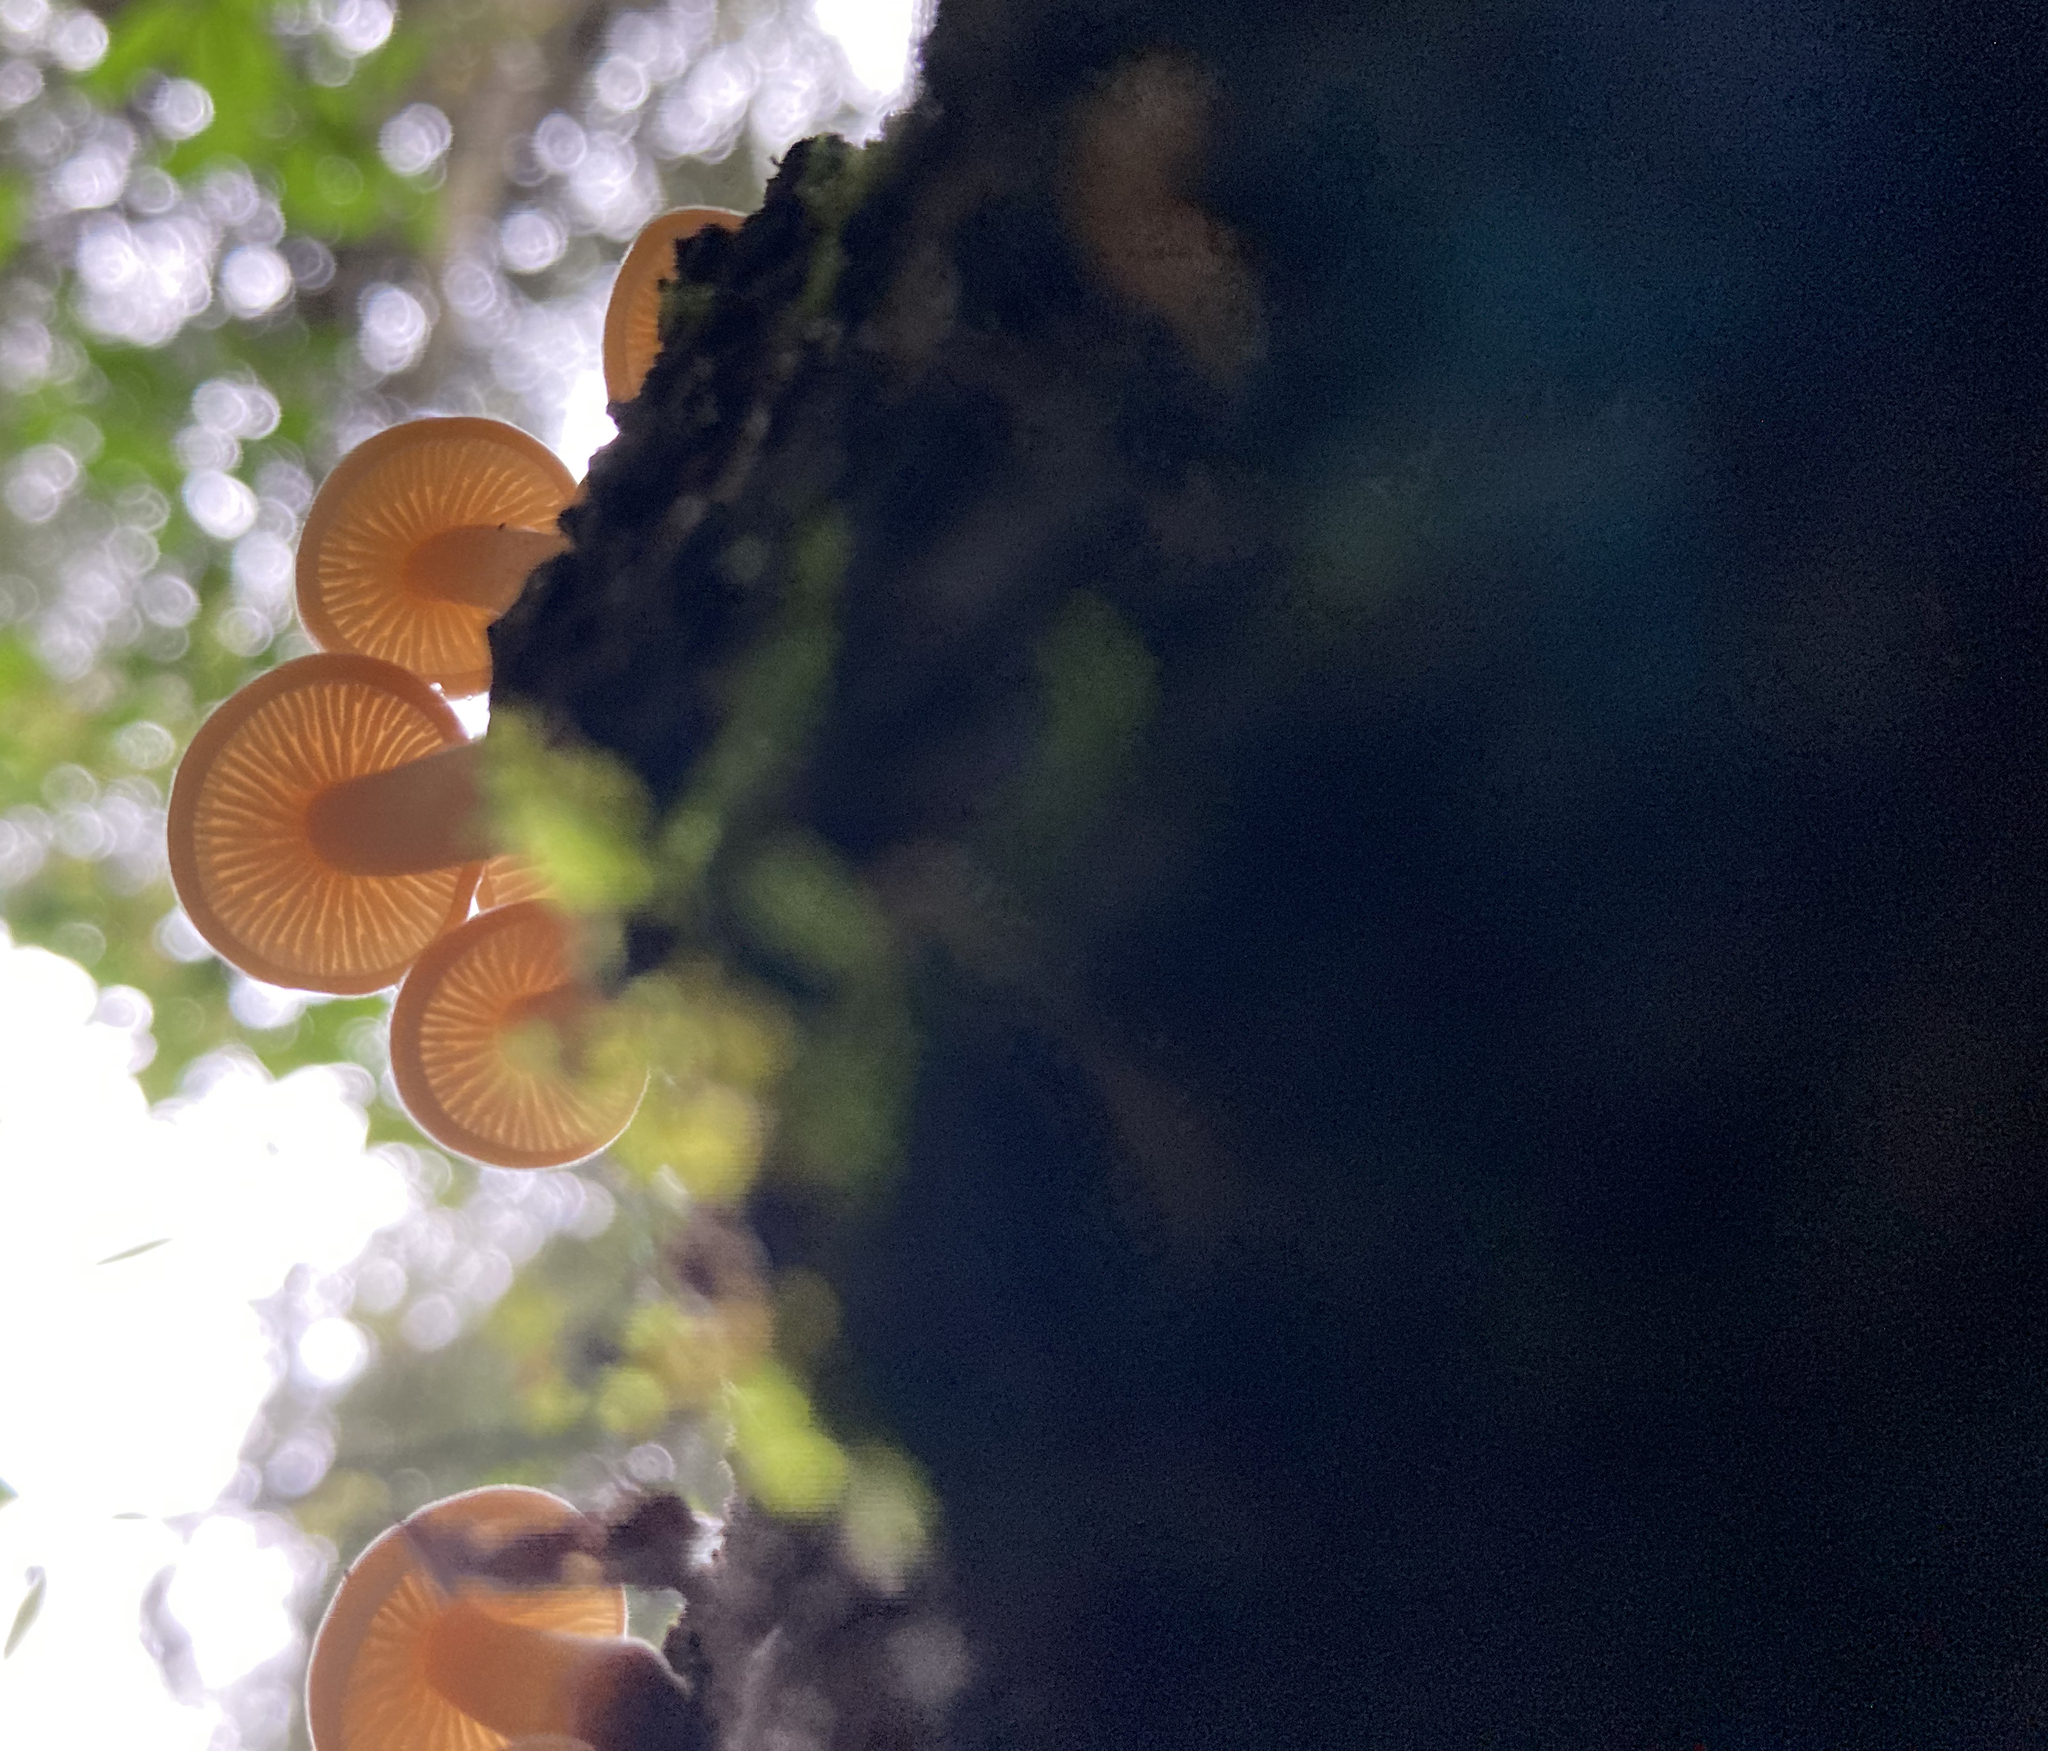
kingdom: Fungi
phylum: Basidiomycota
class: Agaricomycetes
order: Agaricales
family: Physalacriaceae
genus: Flammulina
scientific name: Flammulina velutipes
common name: Velvet shank
